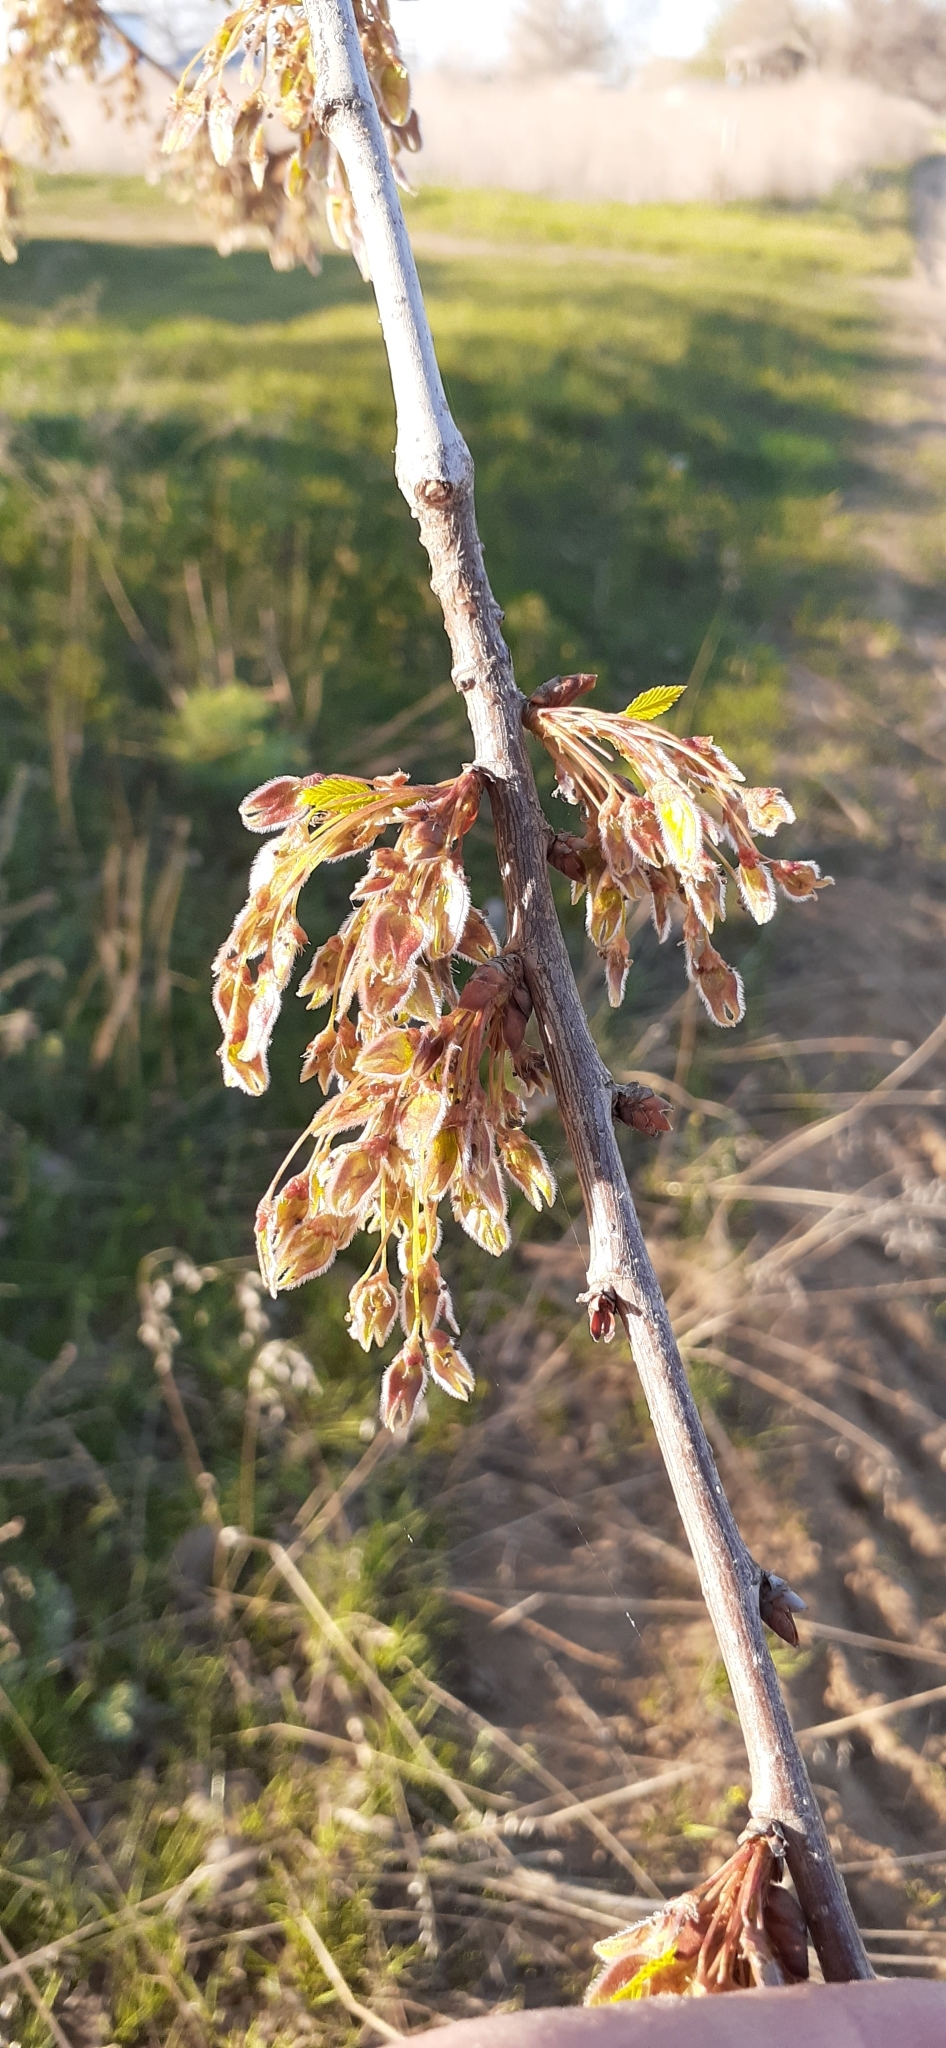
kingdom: Plantae
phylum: Tracheophyta
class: Magnoliopsida
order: Rosales
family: Ulmaceae
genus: Ulmus
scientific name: Ulmus laevis
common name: European white-elm
